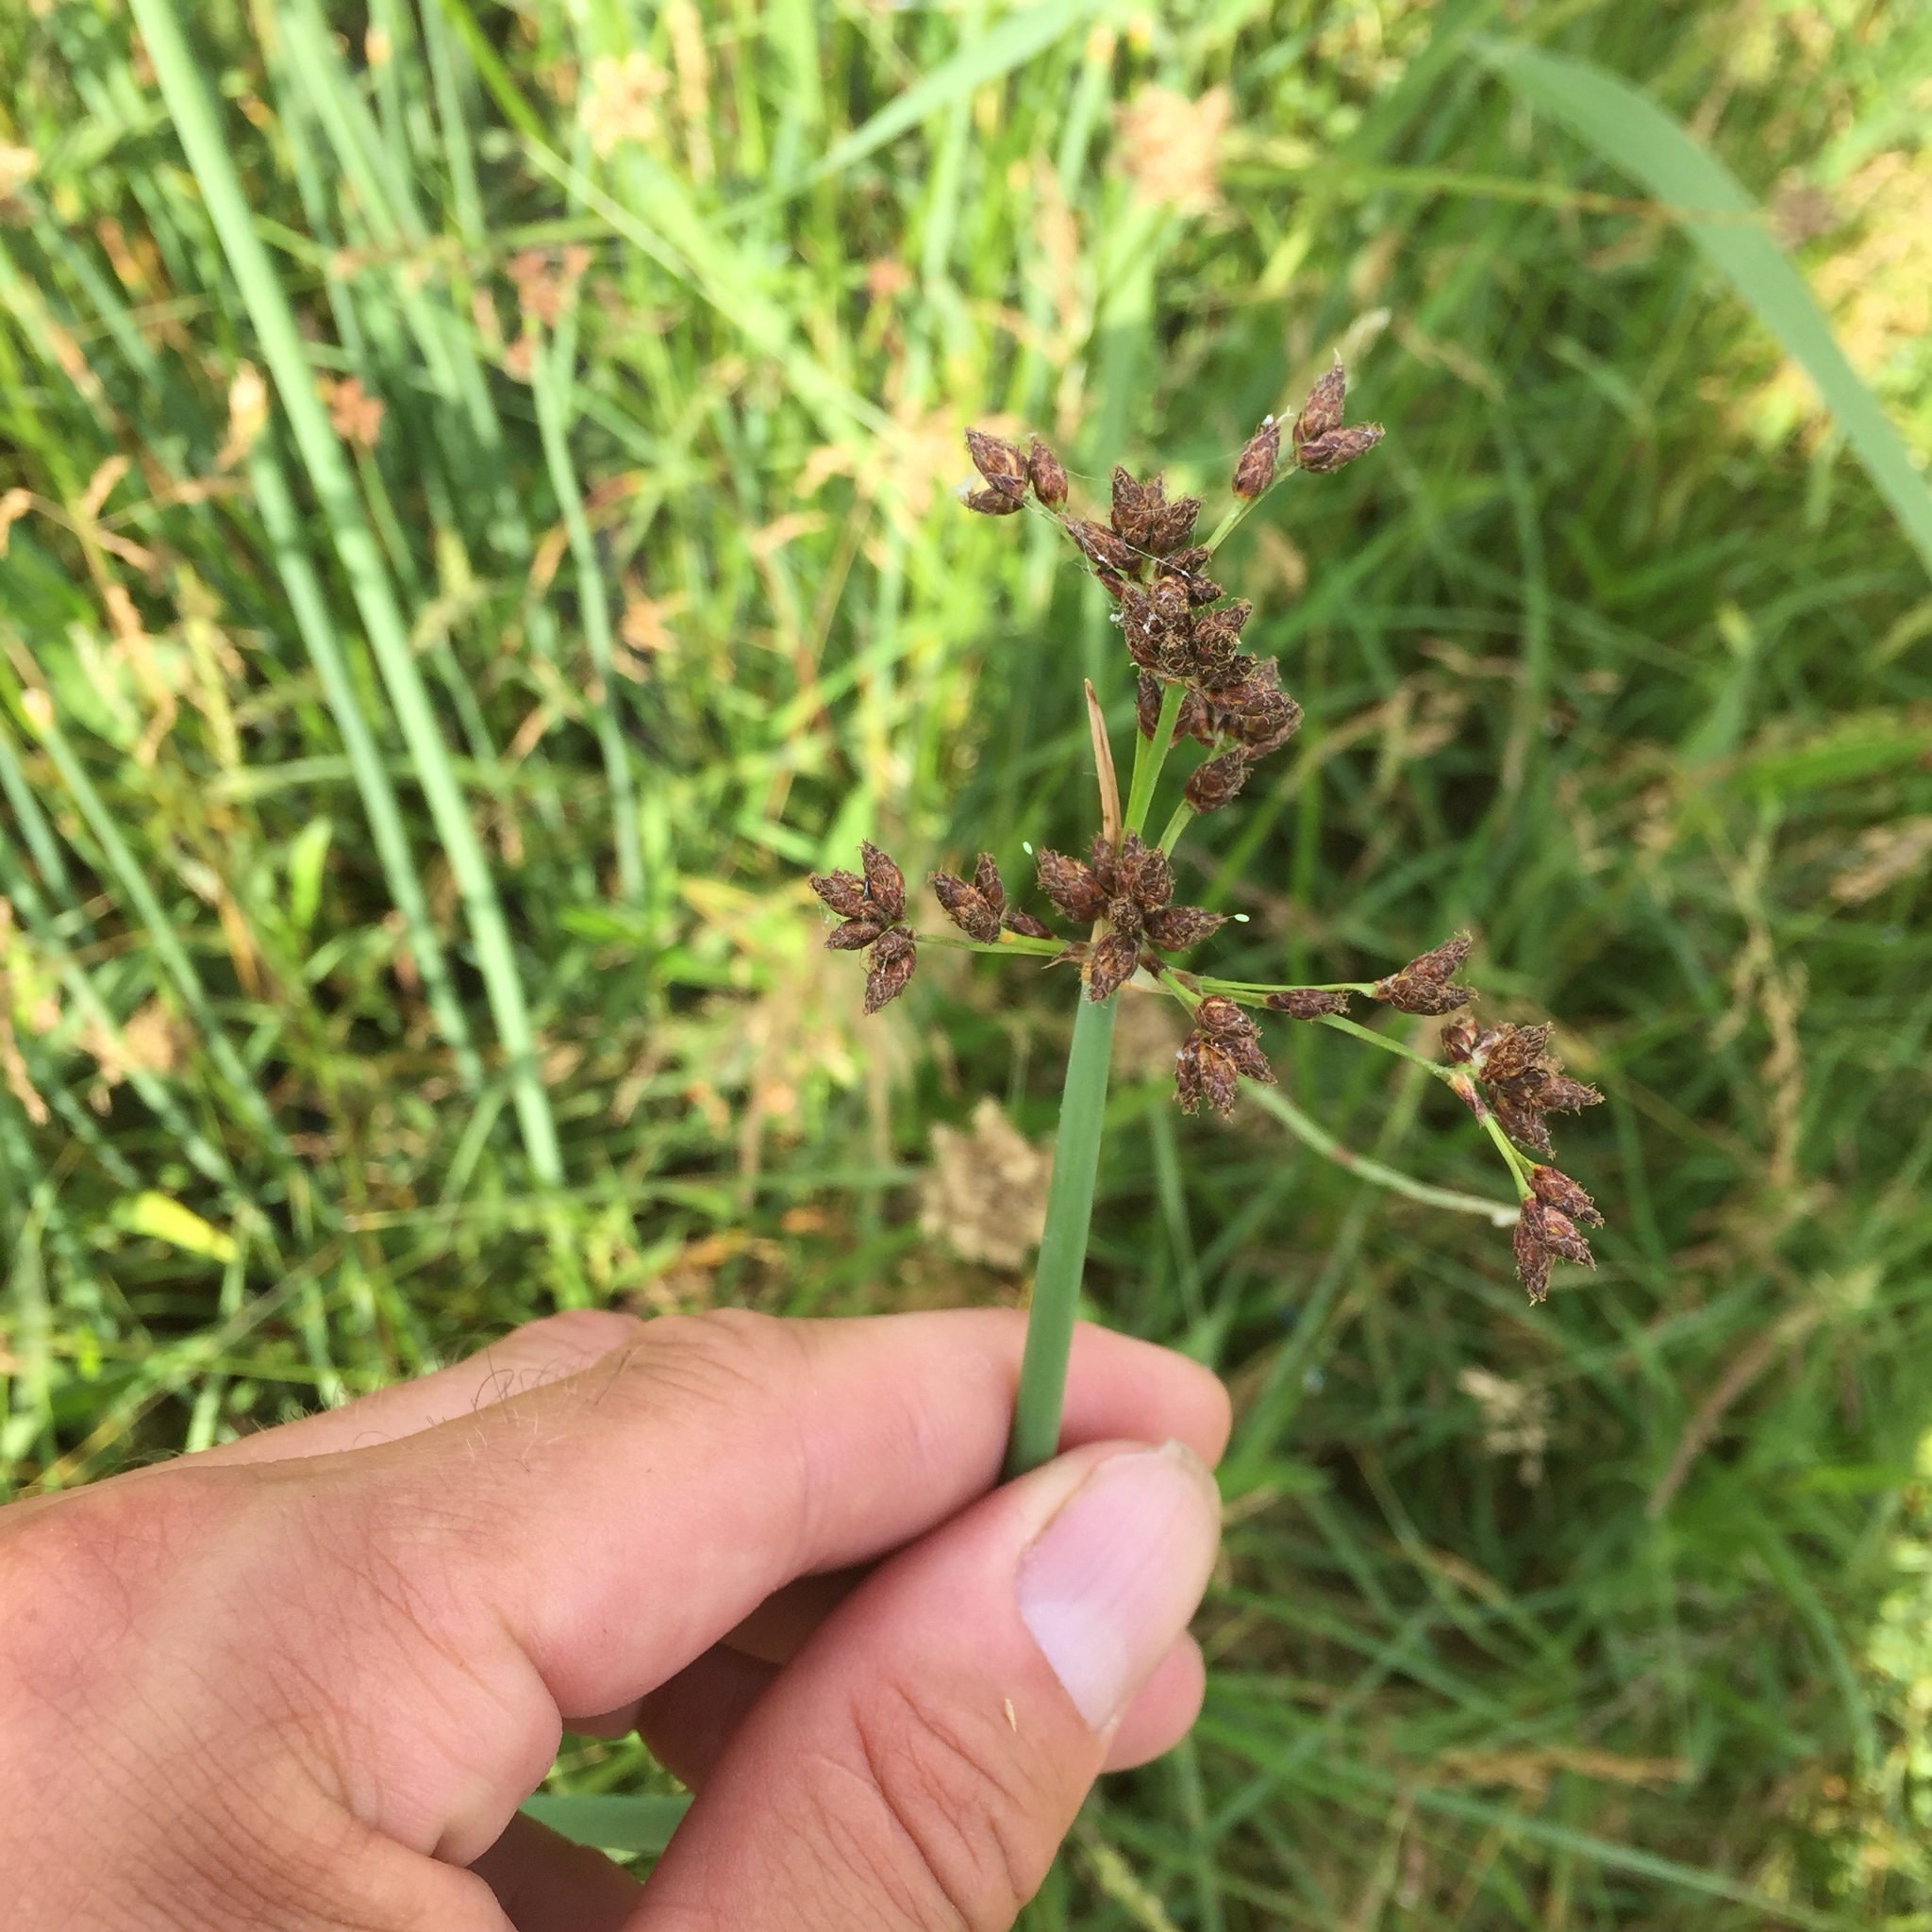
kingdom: Plantae
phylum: Tracheophyta
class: Liliopsida
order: Poales
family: Cyperaceae
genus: Schoenoplectus
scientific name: Schoenoplectus lacustris
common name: Common club-rush
